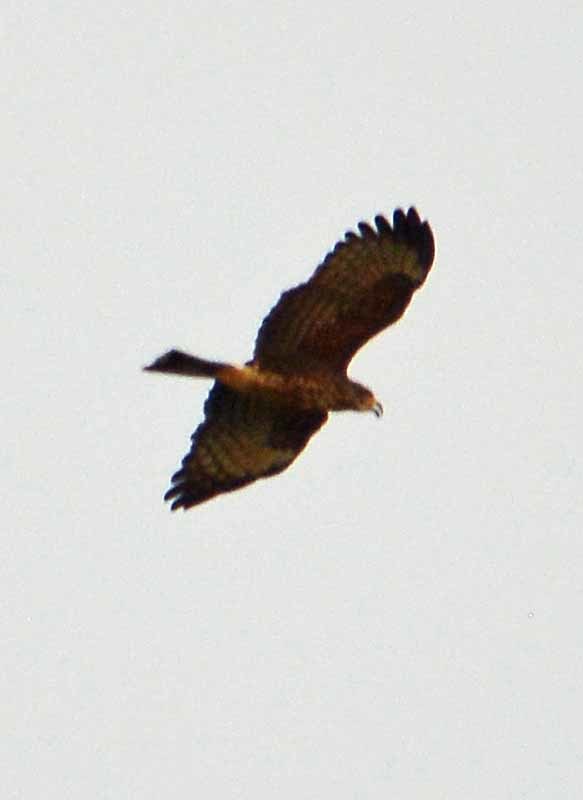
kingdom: Animalia
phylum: Chordata
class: Aves
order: Accipitriformes
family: Accipitridae
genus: Rostrhamus
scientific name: Rostrhamus sociabilis
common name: Snail kite
